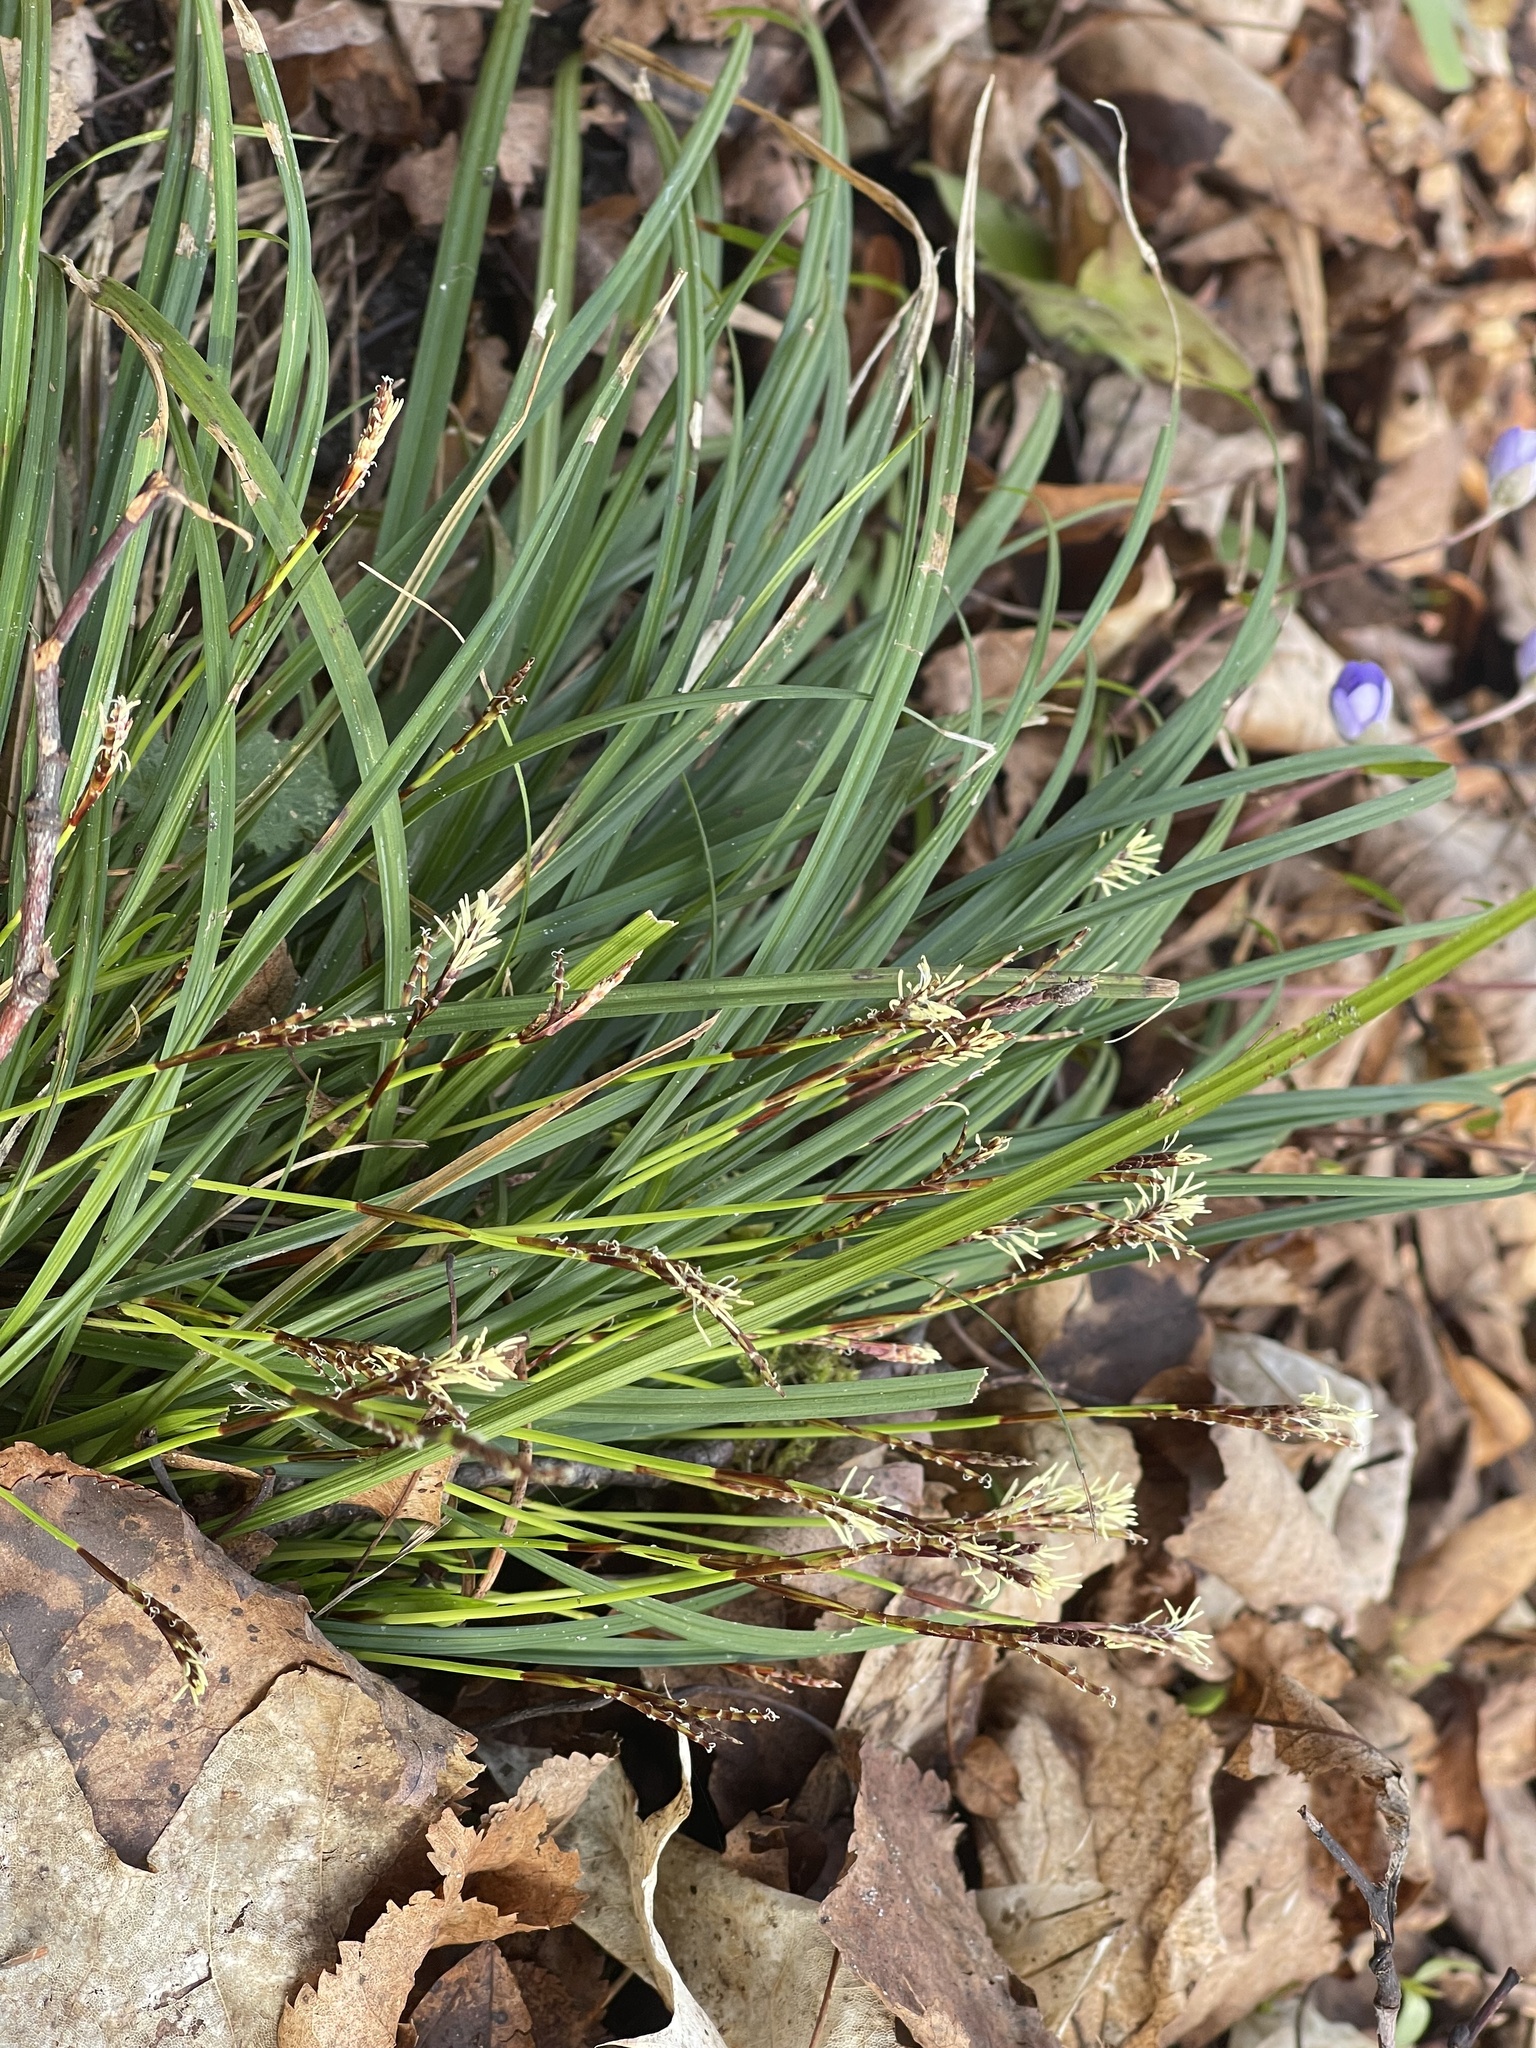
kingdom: Plantae
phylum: Tracheophyta
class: Liliopsida
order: Poales
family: Cyperaceae
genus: Carex
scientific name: Carex digitata
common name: Fingered sedge
